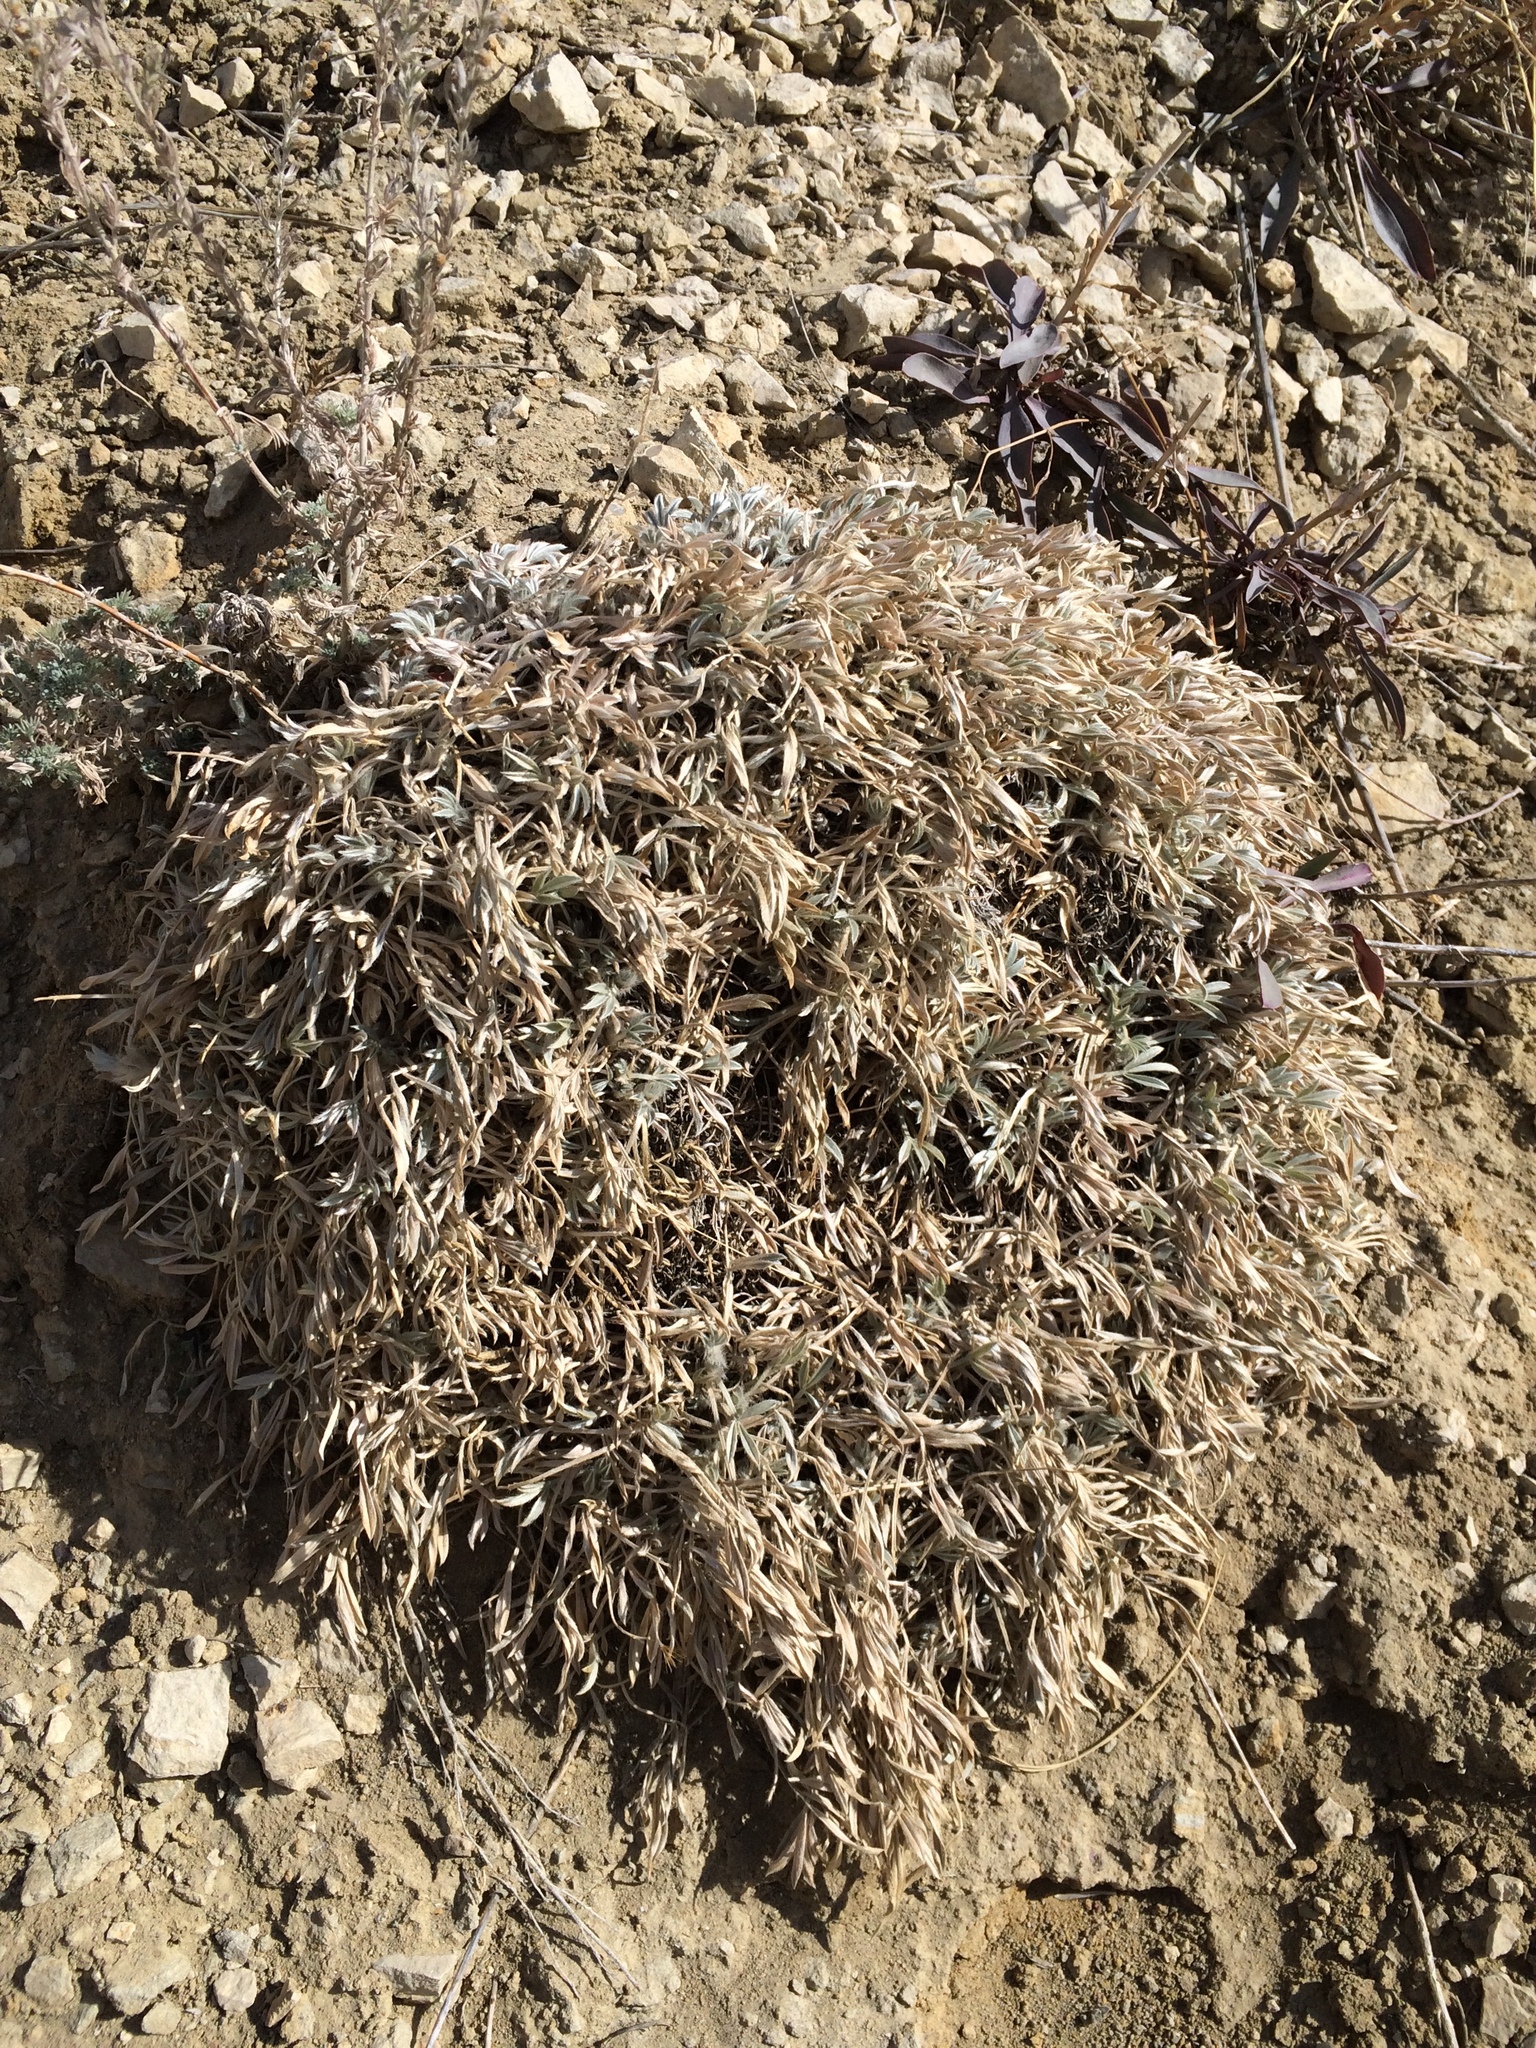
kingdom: Plantae
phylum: Tracheophyta
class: Magnoliopsida
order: Fabales
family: Fabaceae
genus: Astragalus
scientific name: Astragalus tridactylicus
